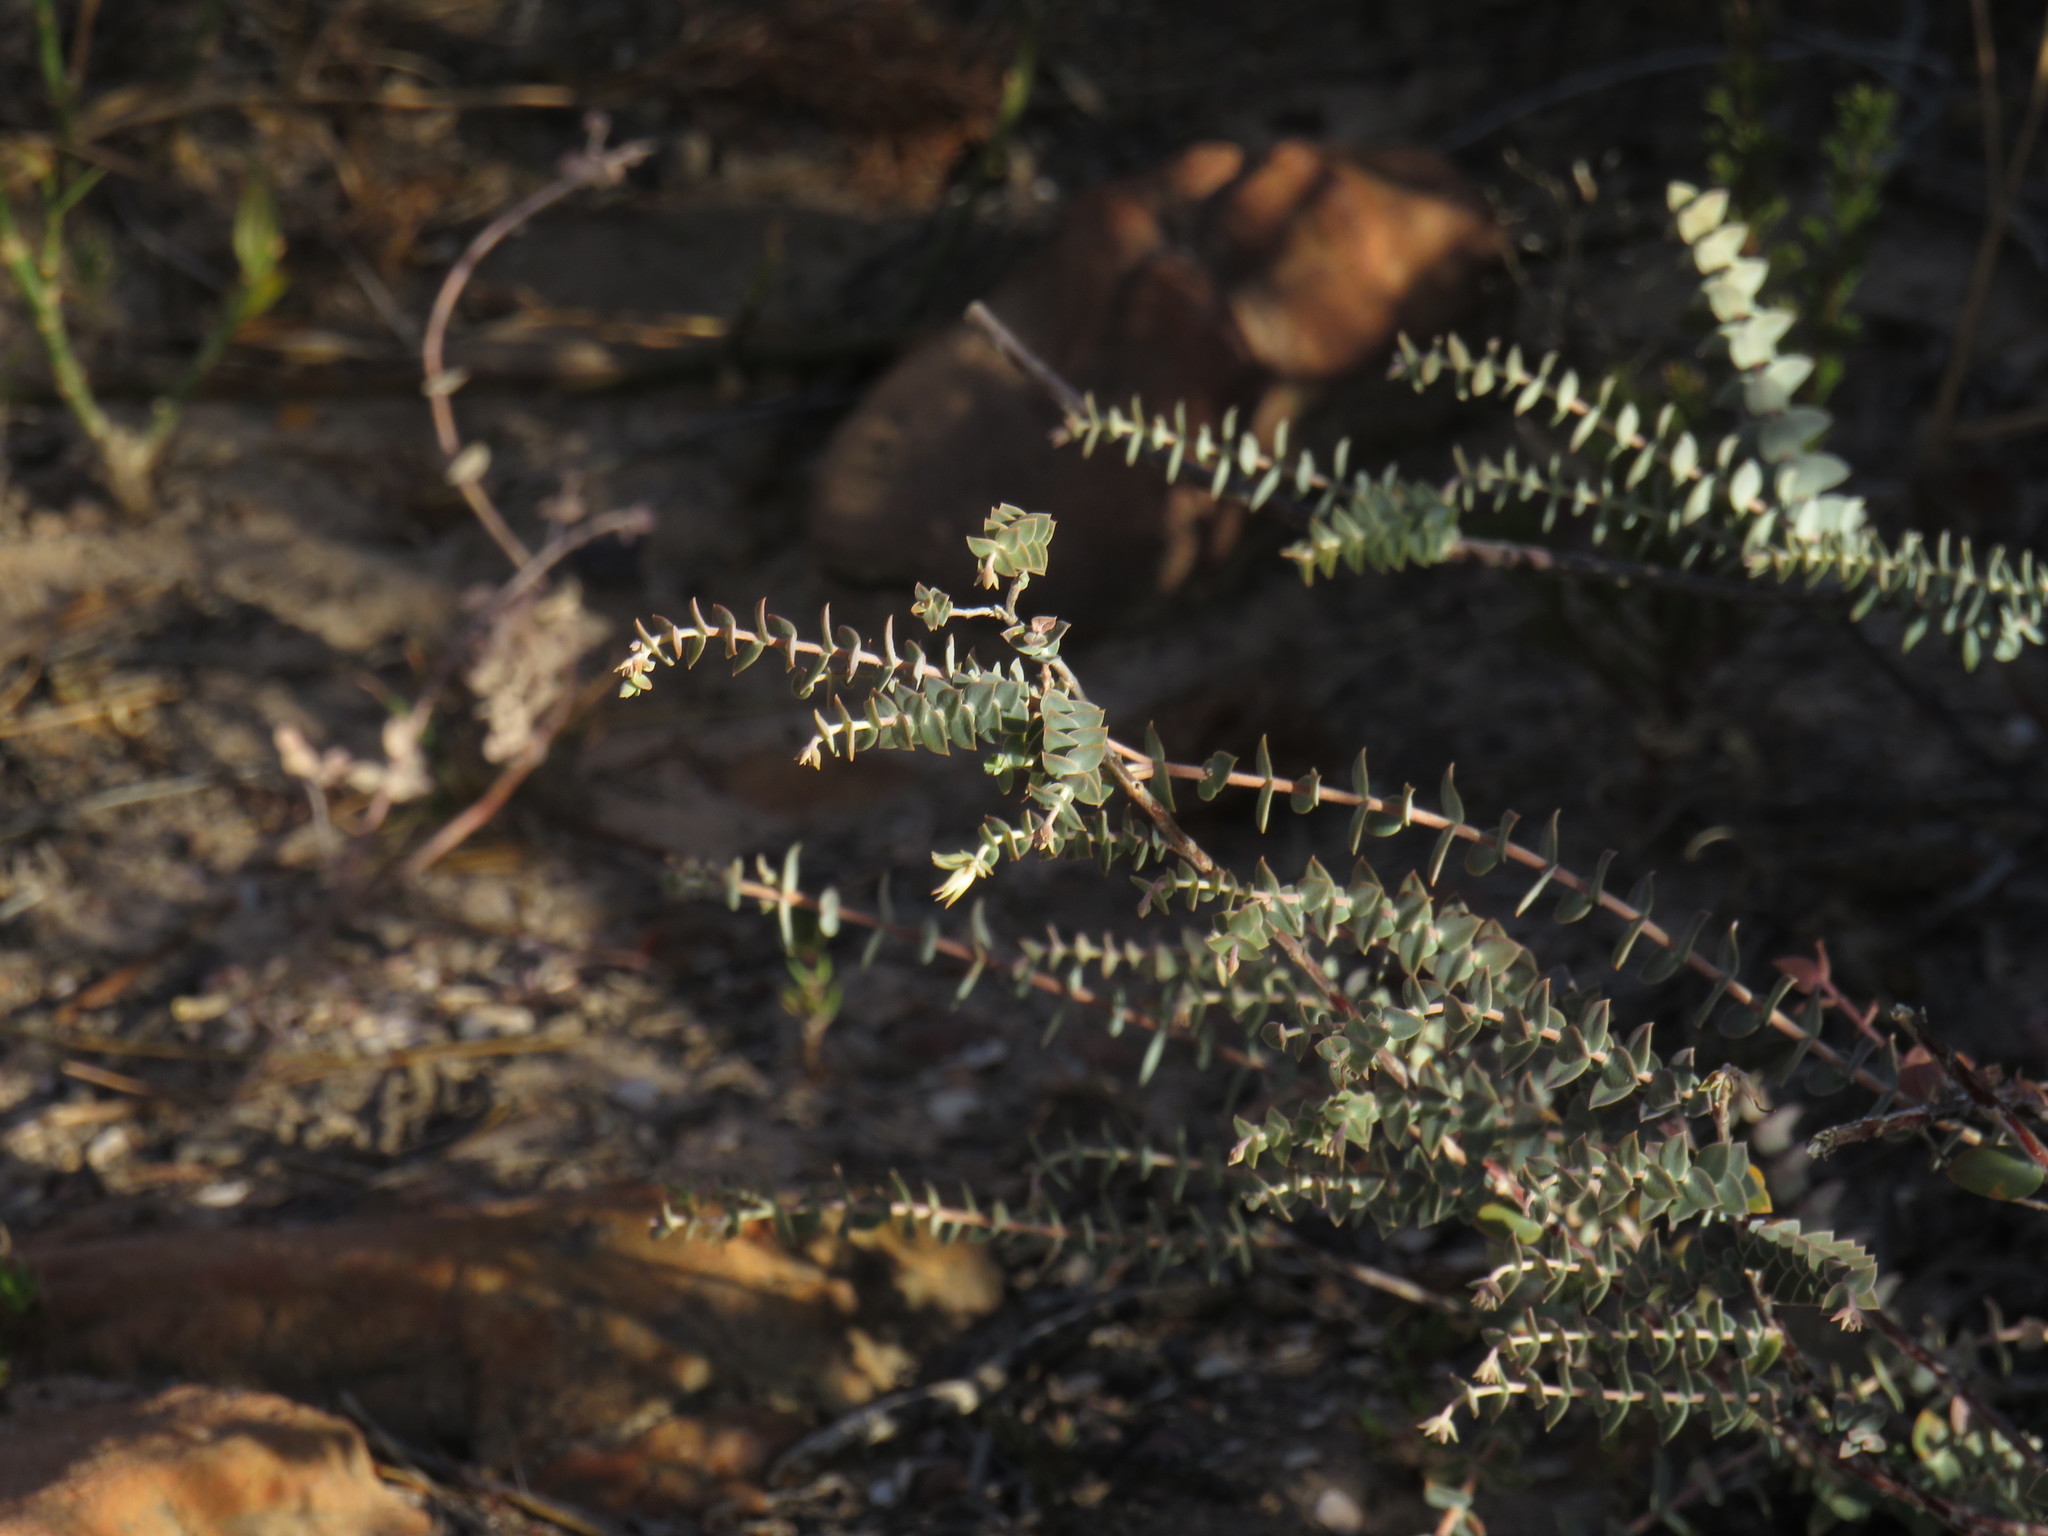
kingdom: Plantae
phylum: Tracheophyta
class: Magnoliopsida
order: Sapindales
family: Rutaceae
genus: Macrostylis
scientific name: Macrostylis barbigera
